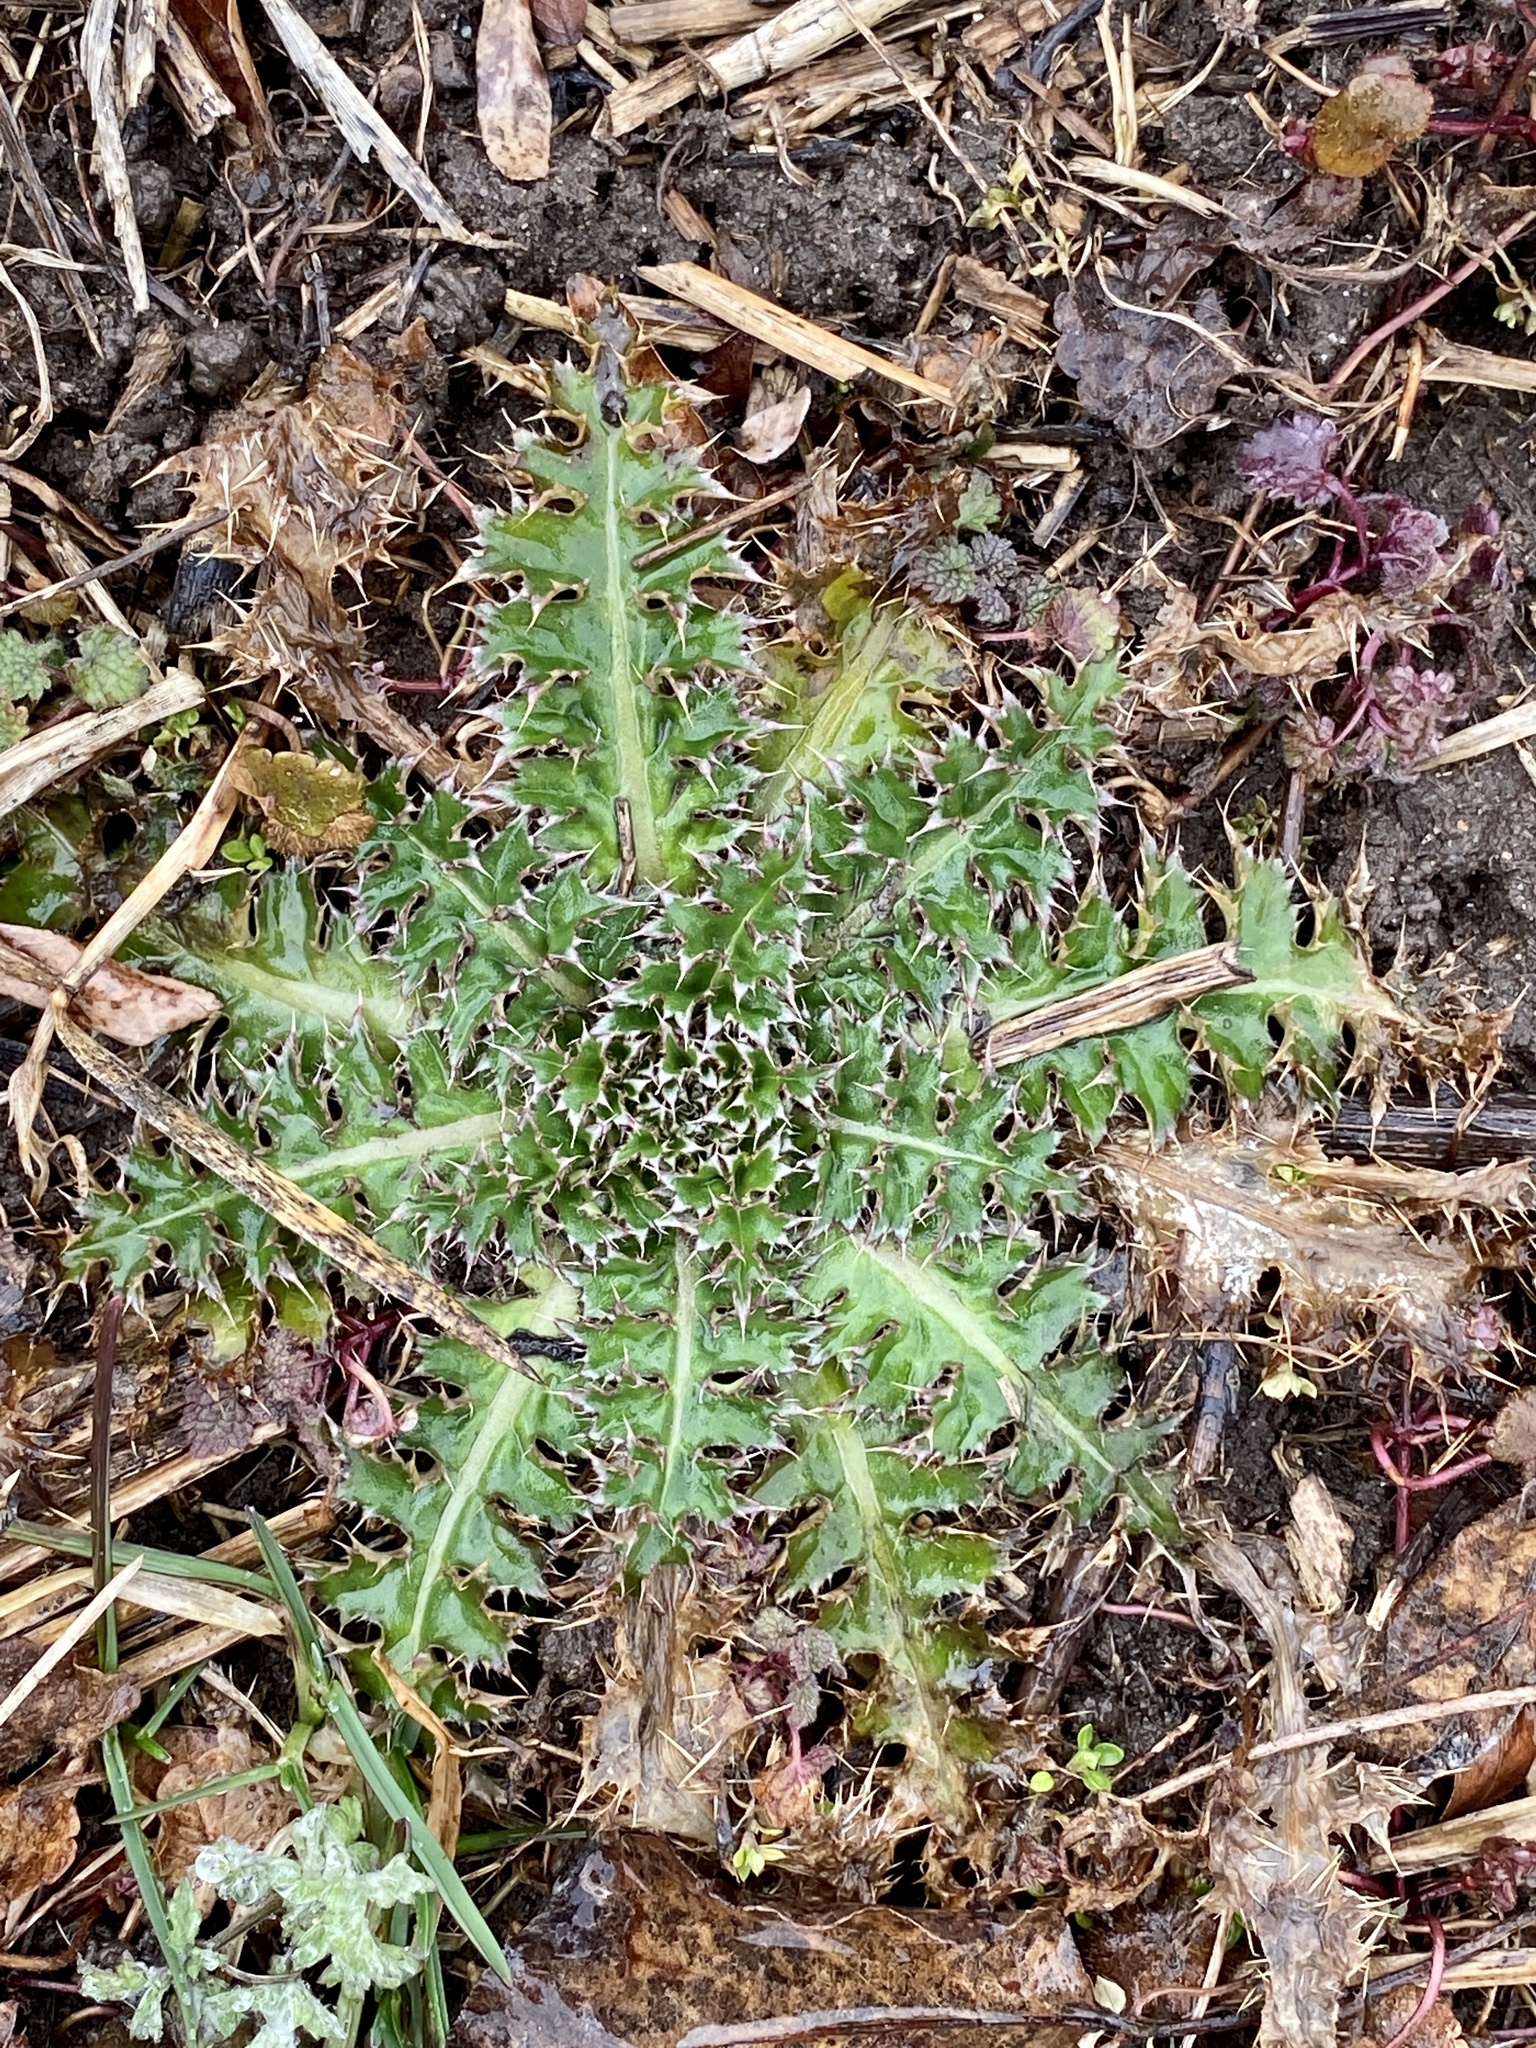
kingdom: Plantae
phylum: Tracheophyta
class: Magnoliopsida
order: Asterales
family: Asteraceae
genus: Carduus
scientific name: Carduus nutans
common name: Musk thistle
